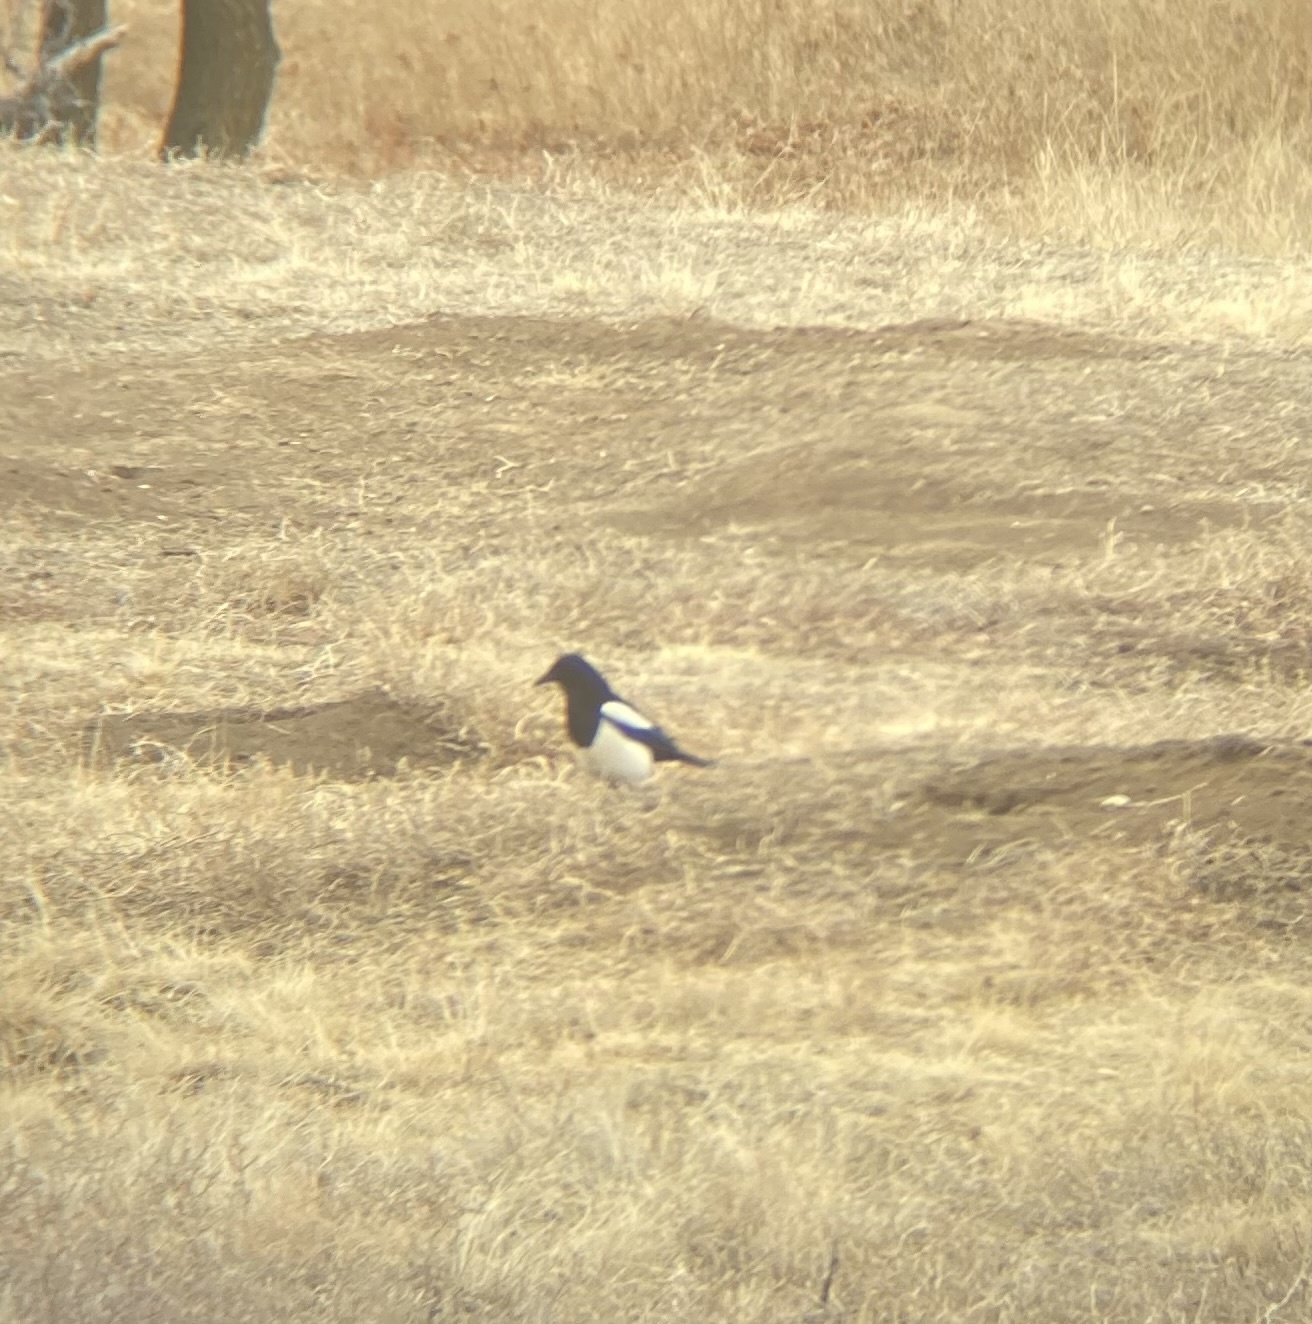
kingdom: Animalia
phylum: Chordata
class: Aves
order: Passeriformes
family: Corvidae
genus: Pica
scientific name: Pica hudsonia
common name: Black-billed magpie
